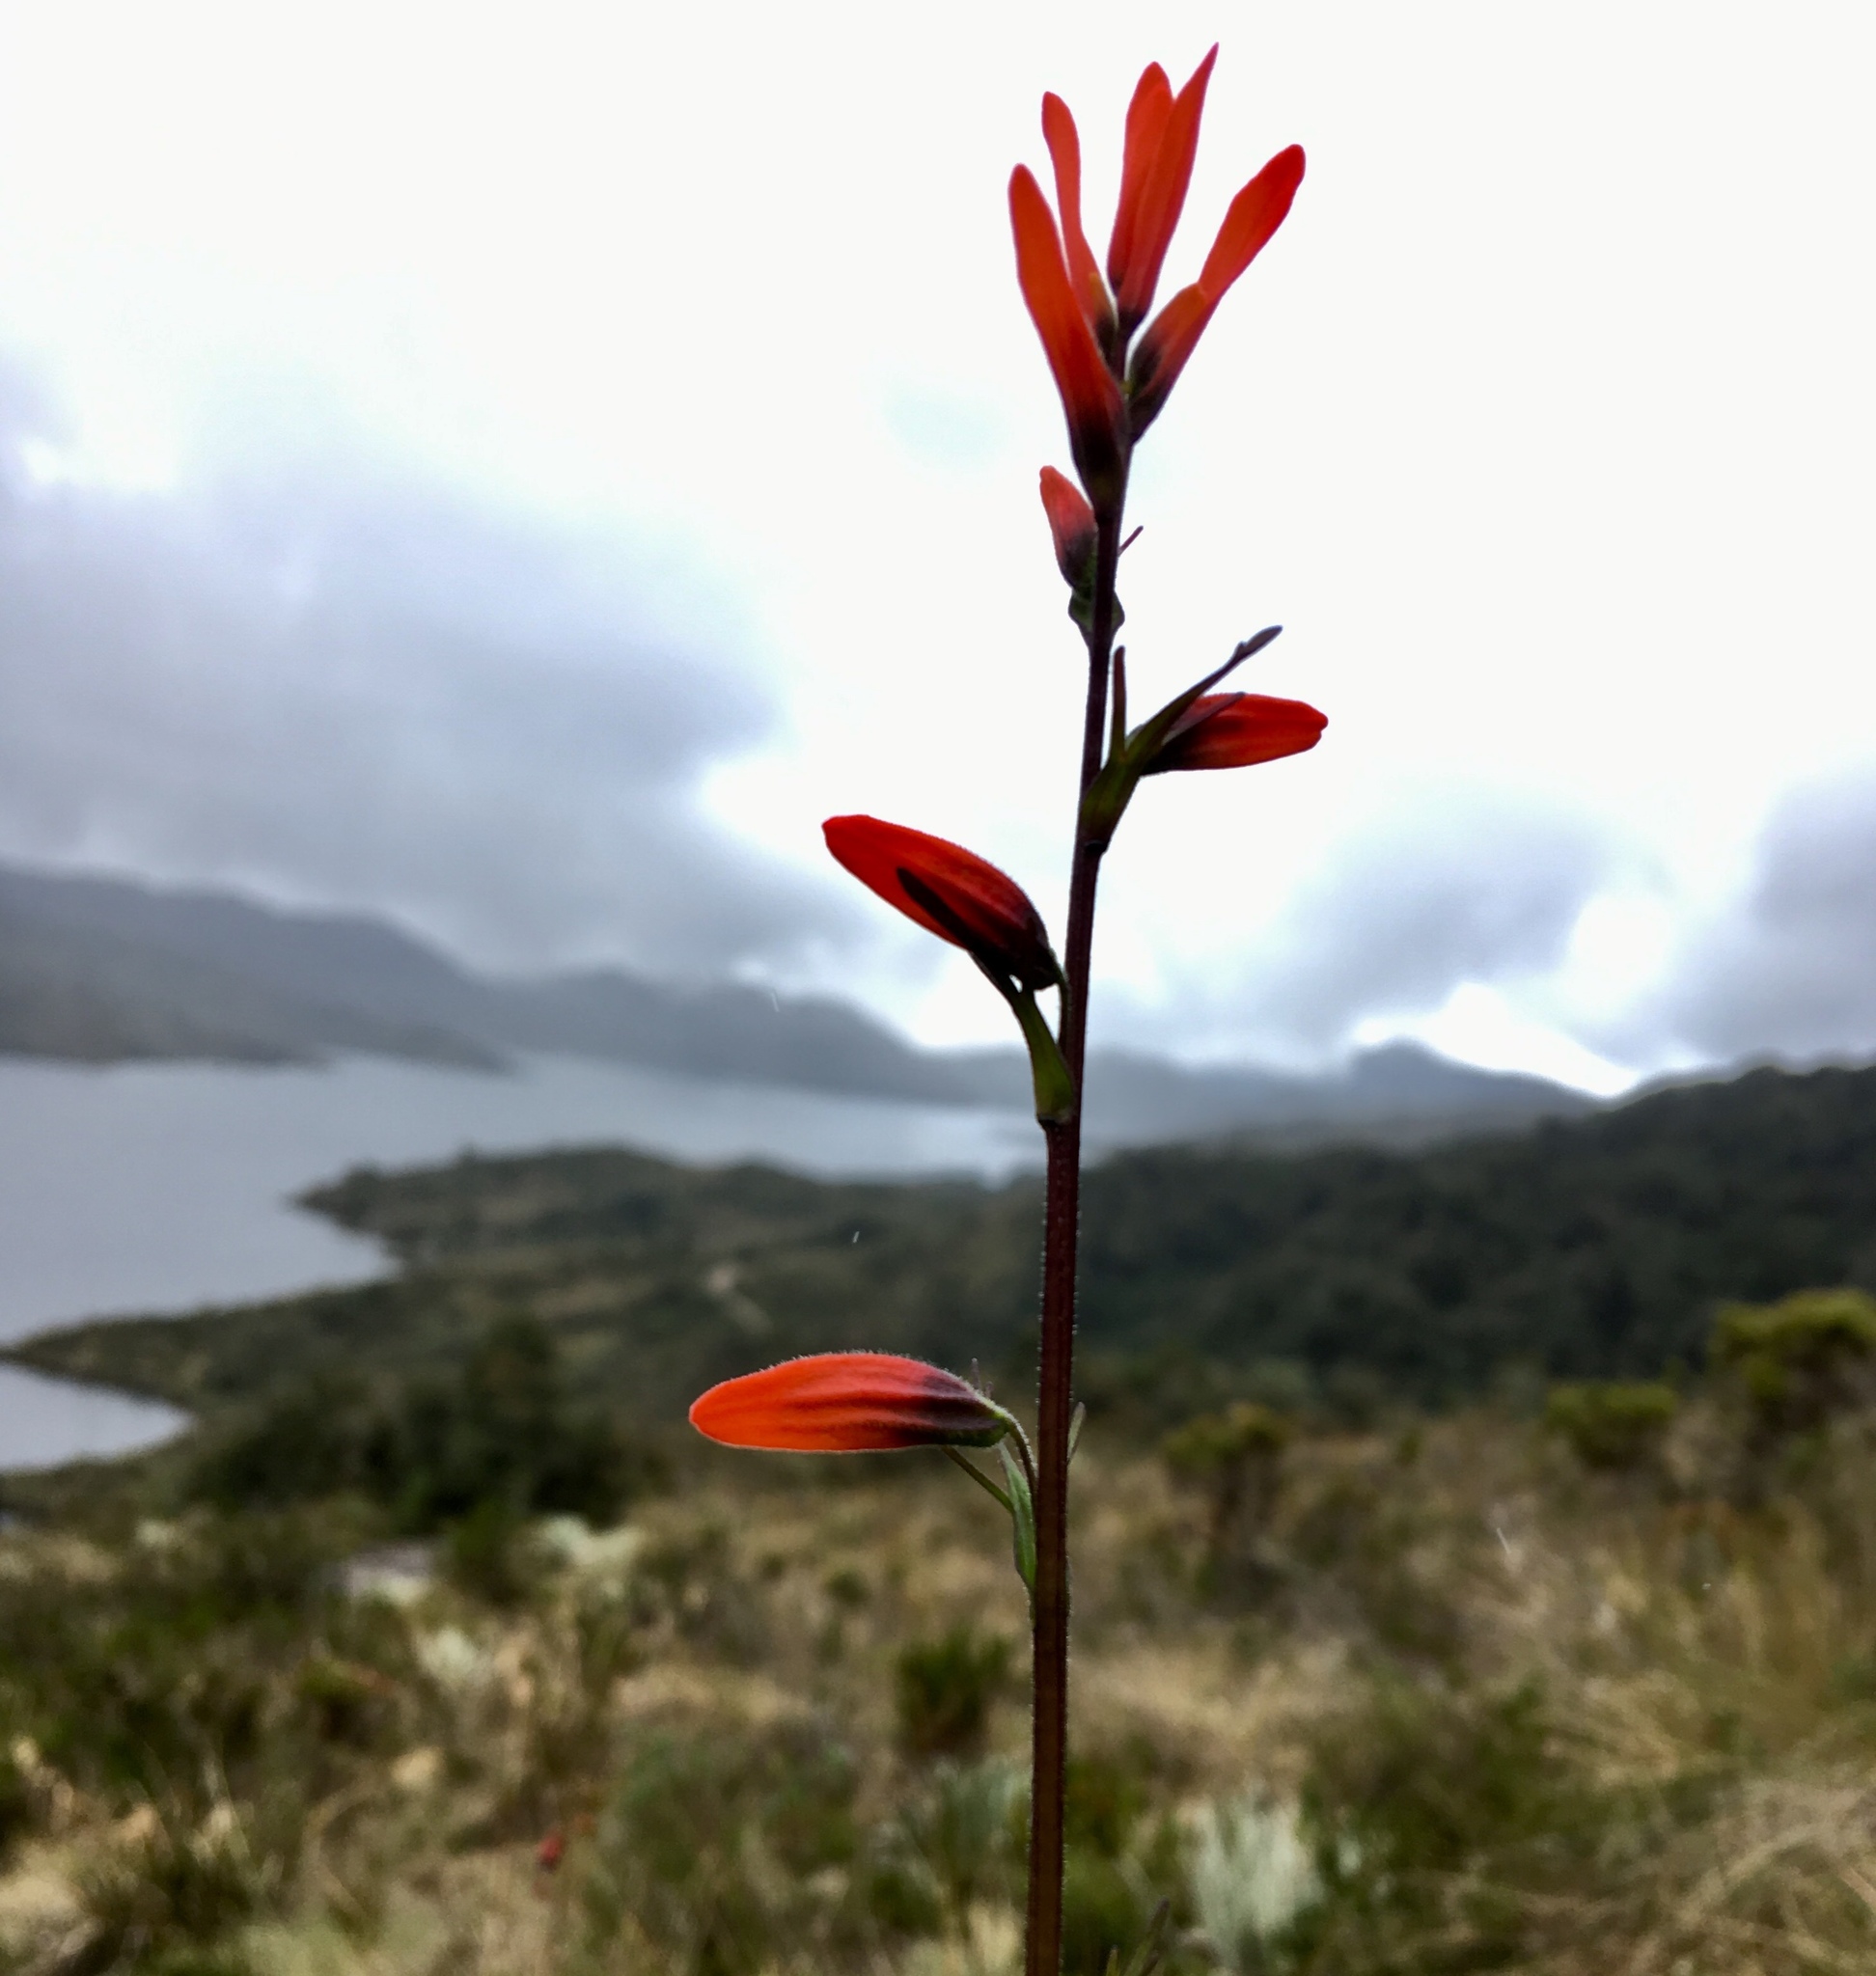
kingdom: Plantae
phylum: Tracheophyta
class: Magnoliopsida
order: Lamiales
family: Orobanchaceae
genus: Castilleja
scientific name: Castilleja fissifolia
